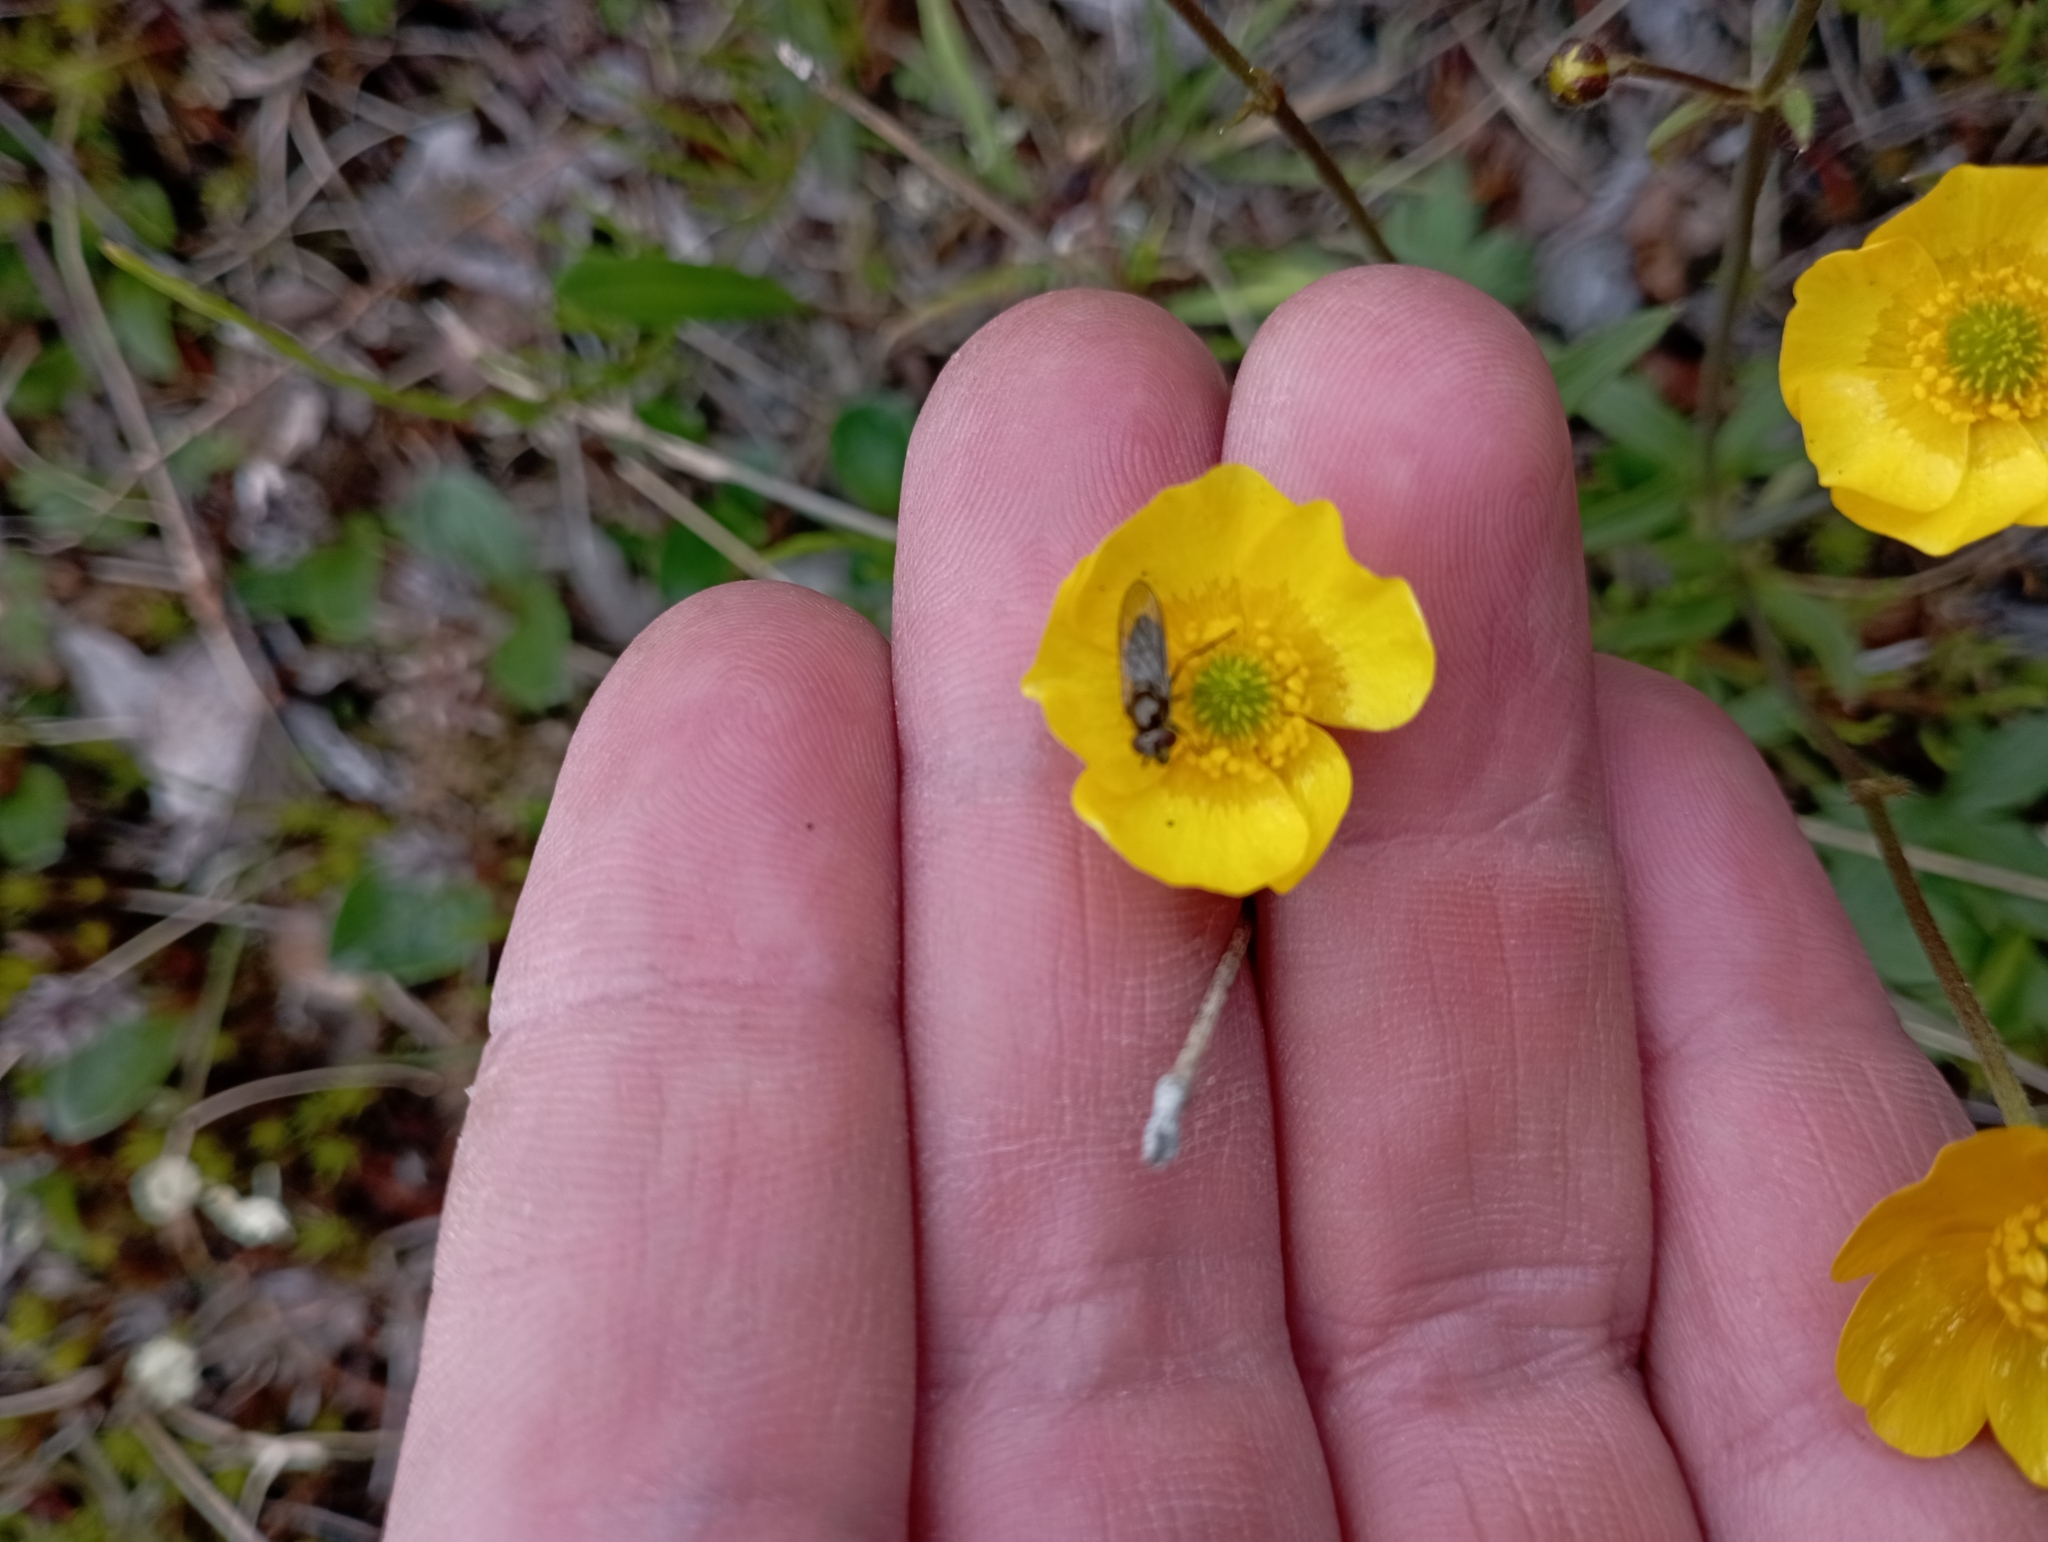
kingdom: Plantae
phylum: Tracheophyta
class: Magnoliopsida
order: Ranunculales
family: Ranunculaceae
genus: Ranunculus
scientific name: Ranunculus propinquus
